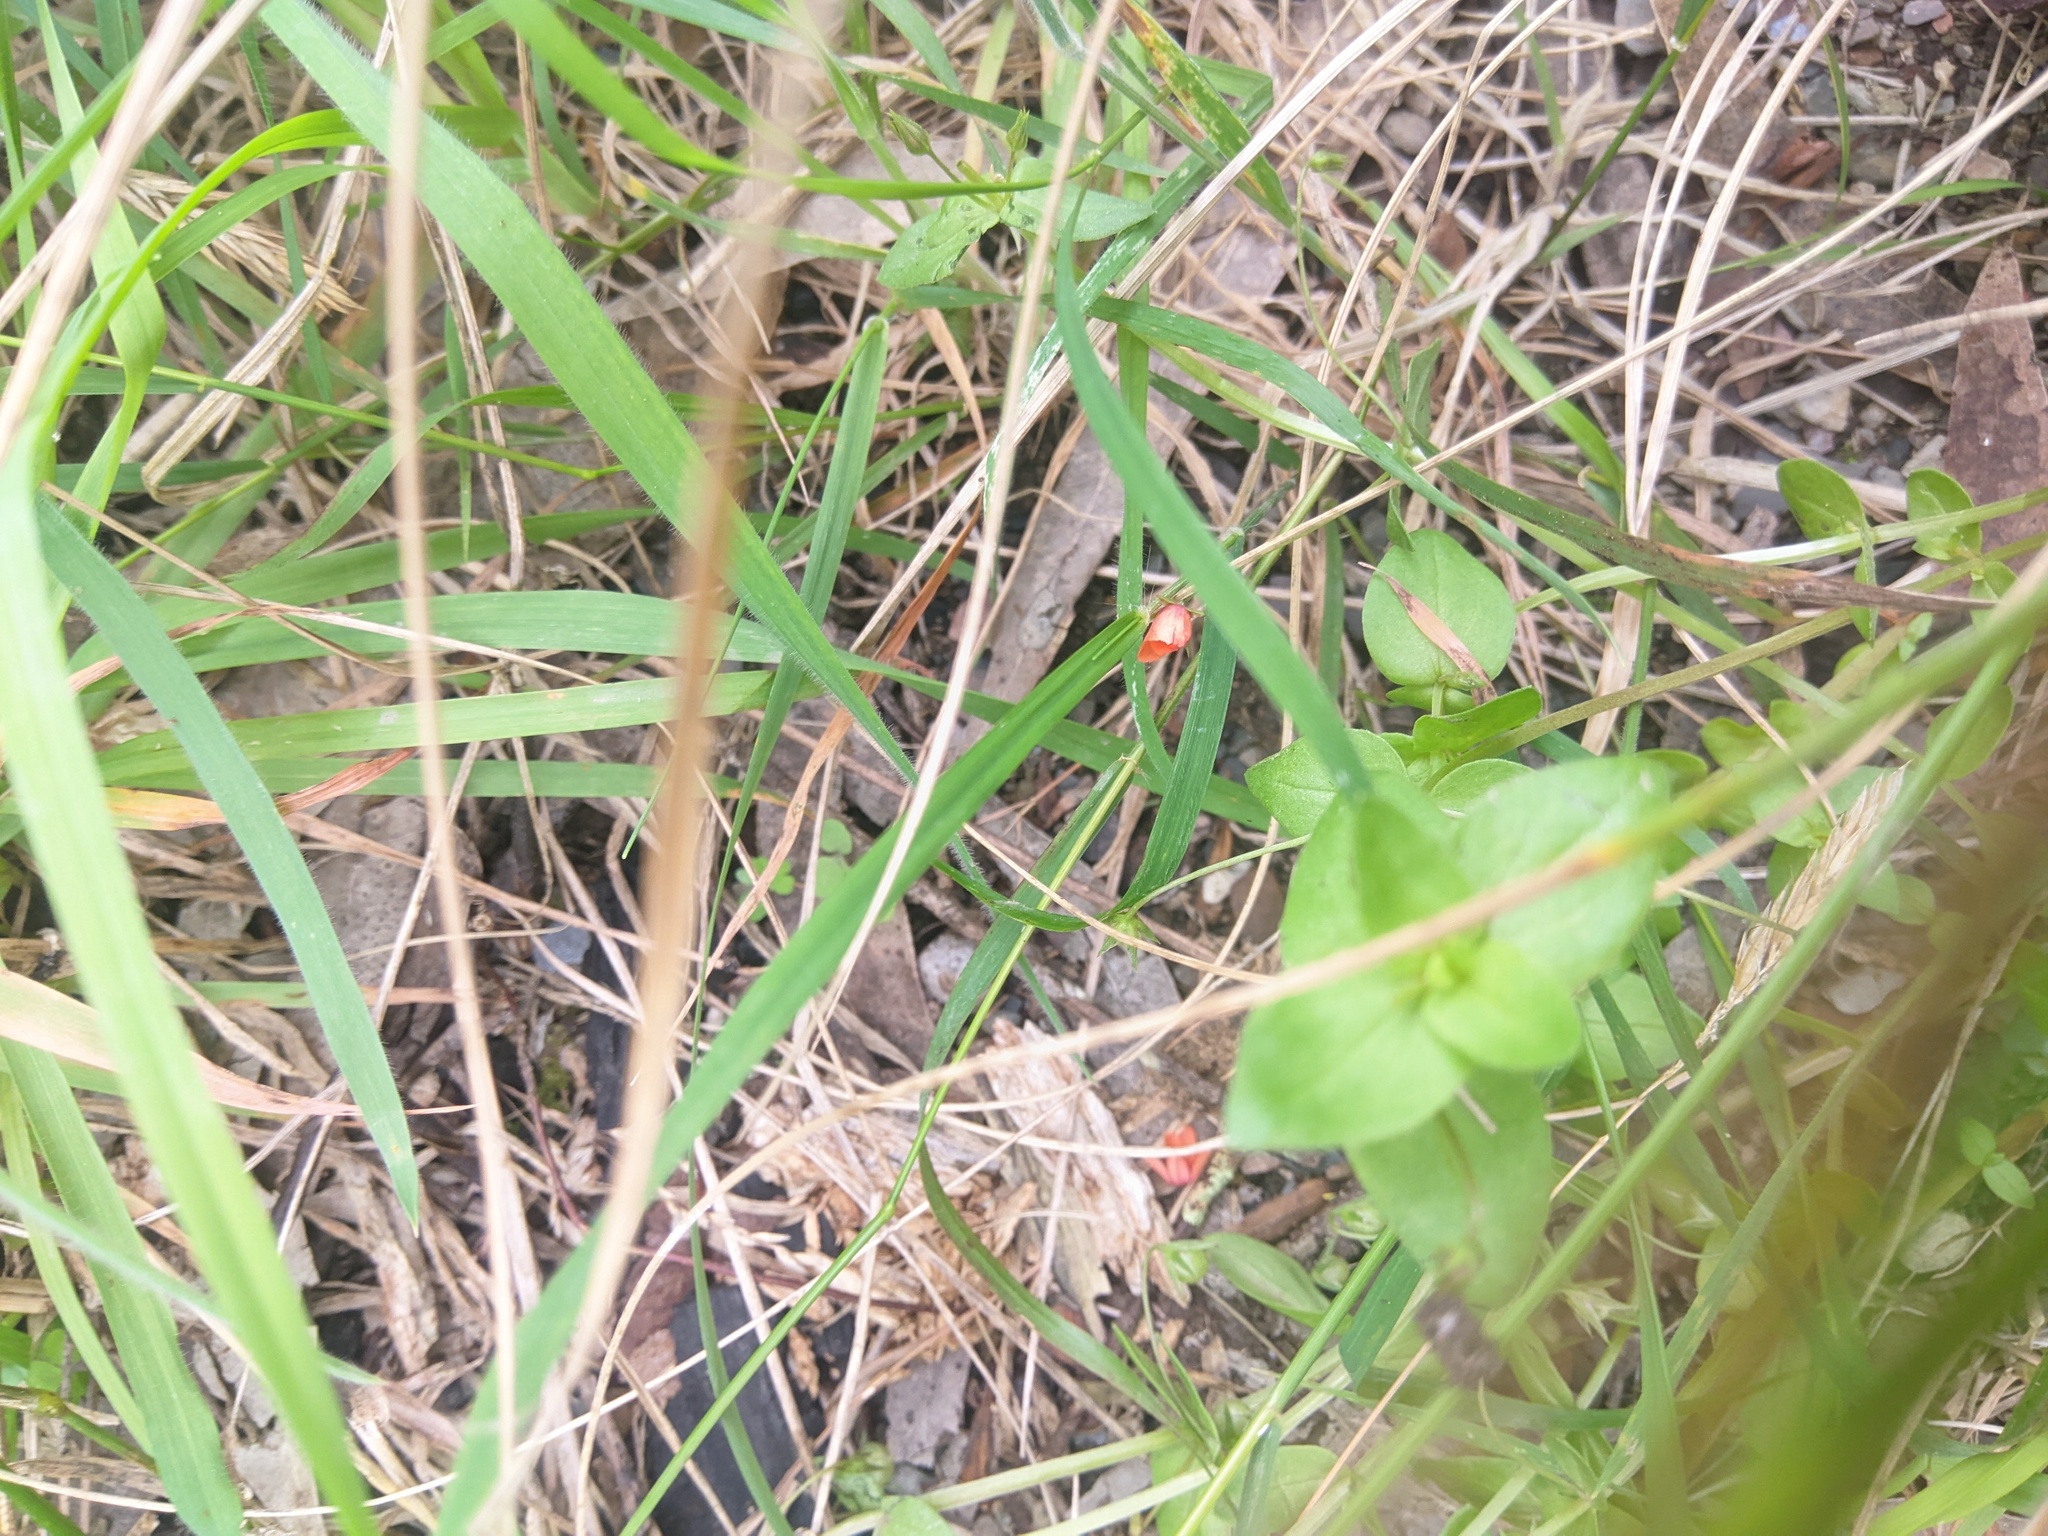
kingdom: Plantae
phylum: Tracheophyta
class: Magnoliopsida
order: Ericales
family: Primulaceae
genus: Lysimachia
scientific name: Lysimachia arvensis
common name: Scarlet pimpernel
